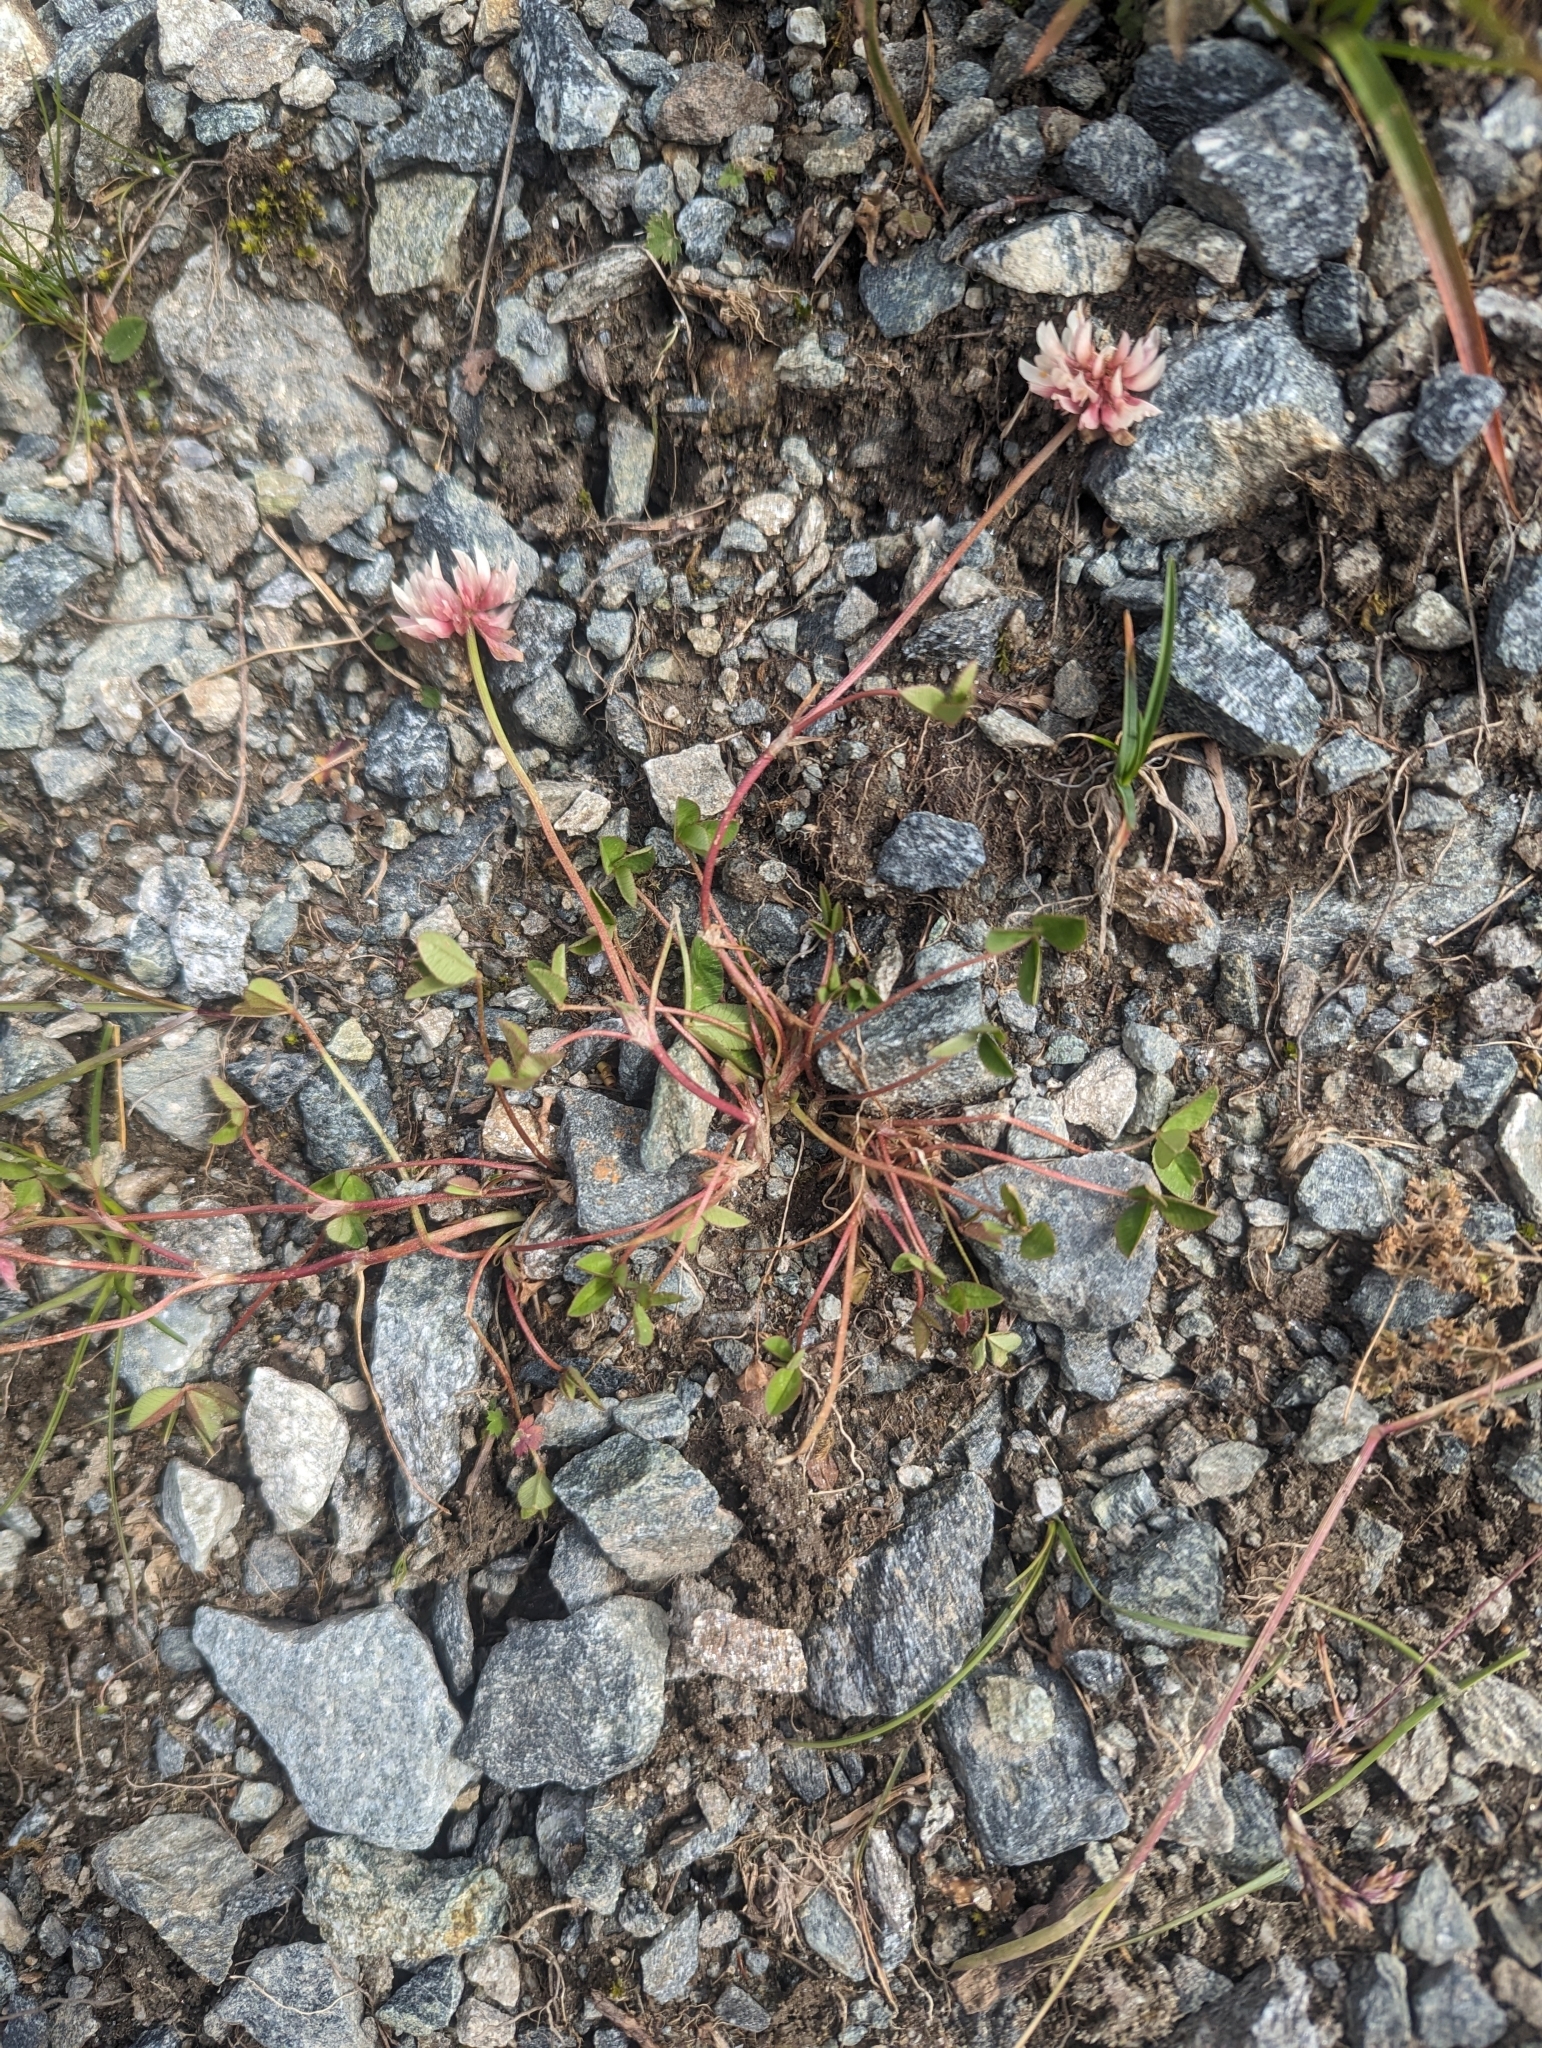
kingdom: Plantae
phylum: Tracheophyta
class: Magnoliopsida
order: Fabales
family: Fabaceae
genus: Trifolium
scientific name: Trifolium pallescens
